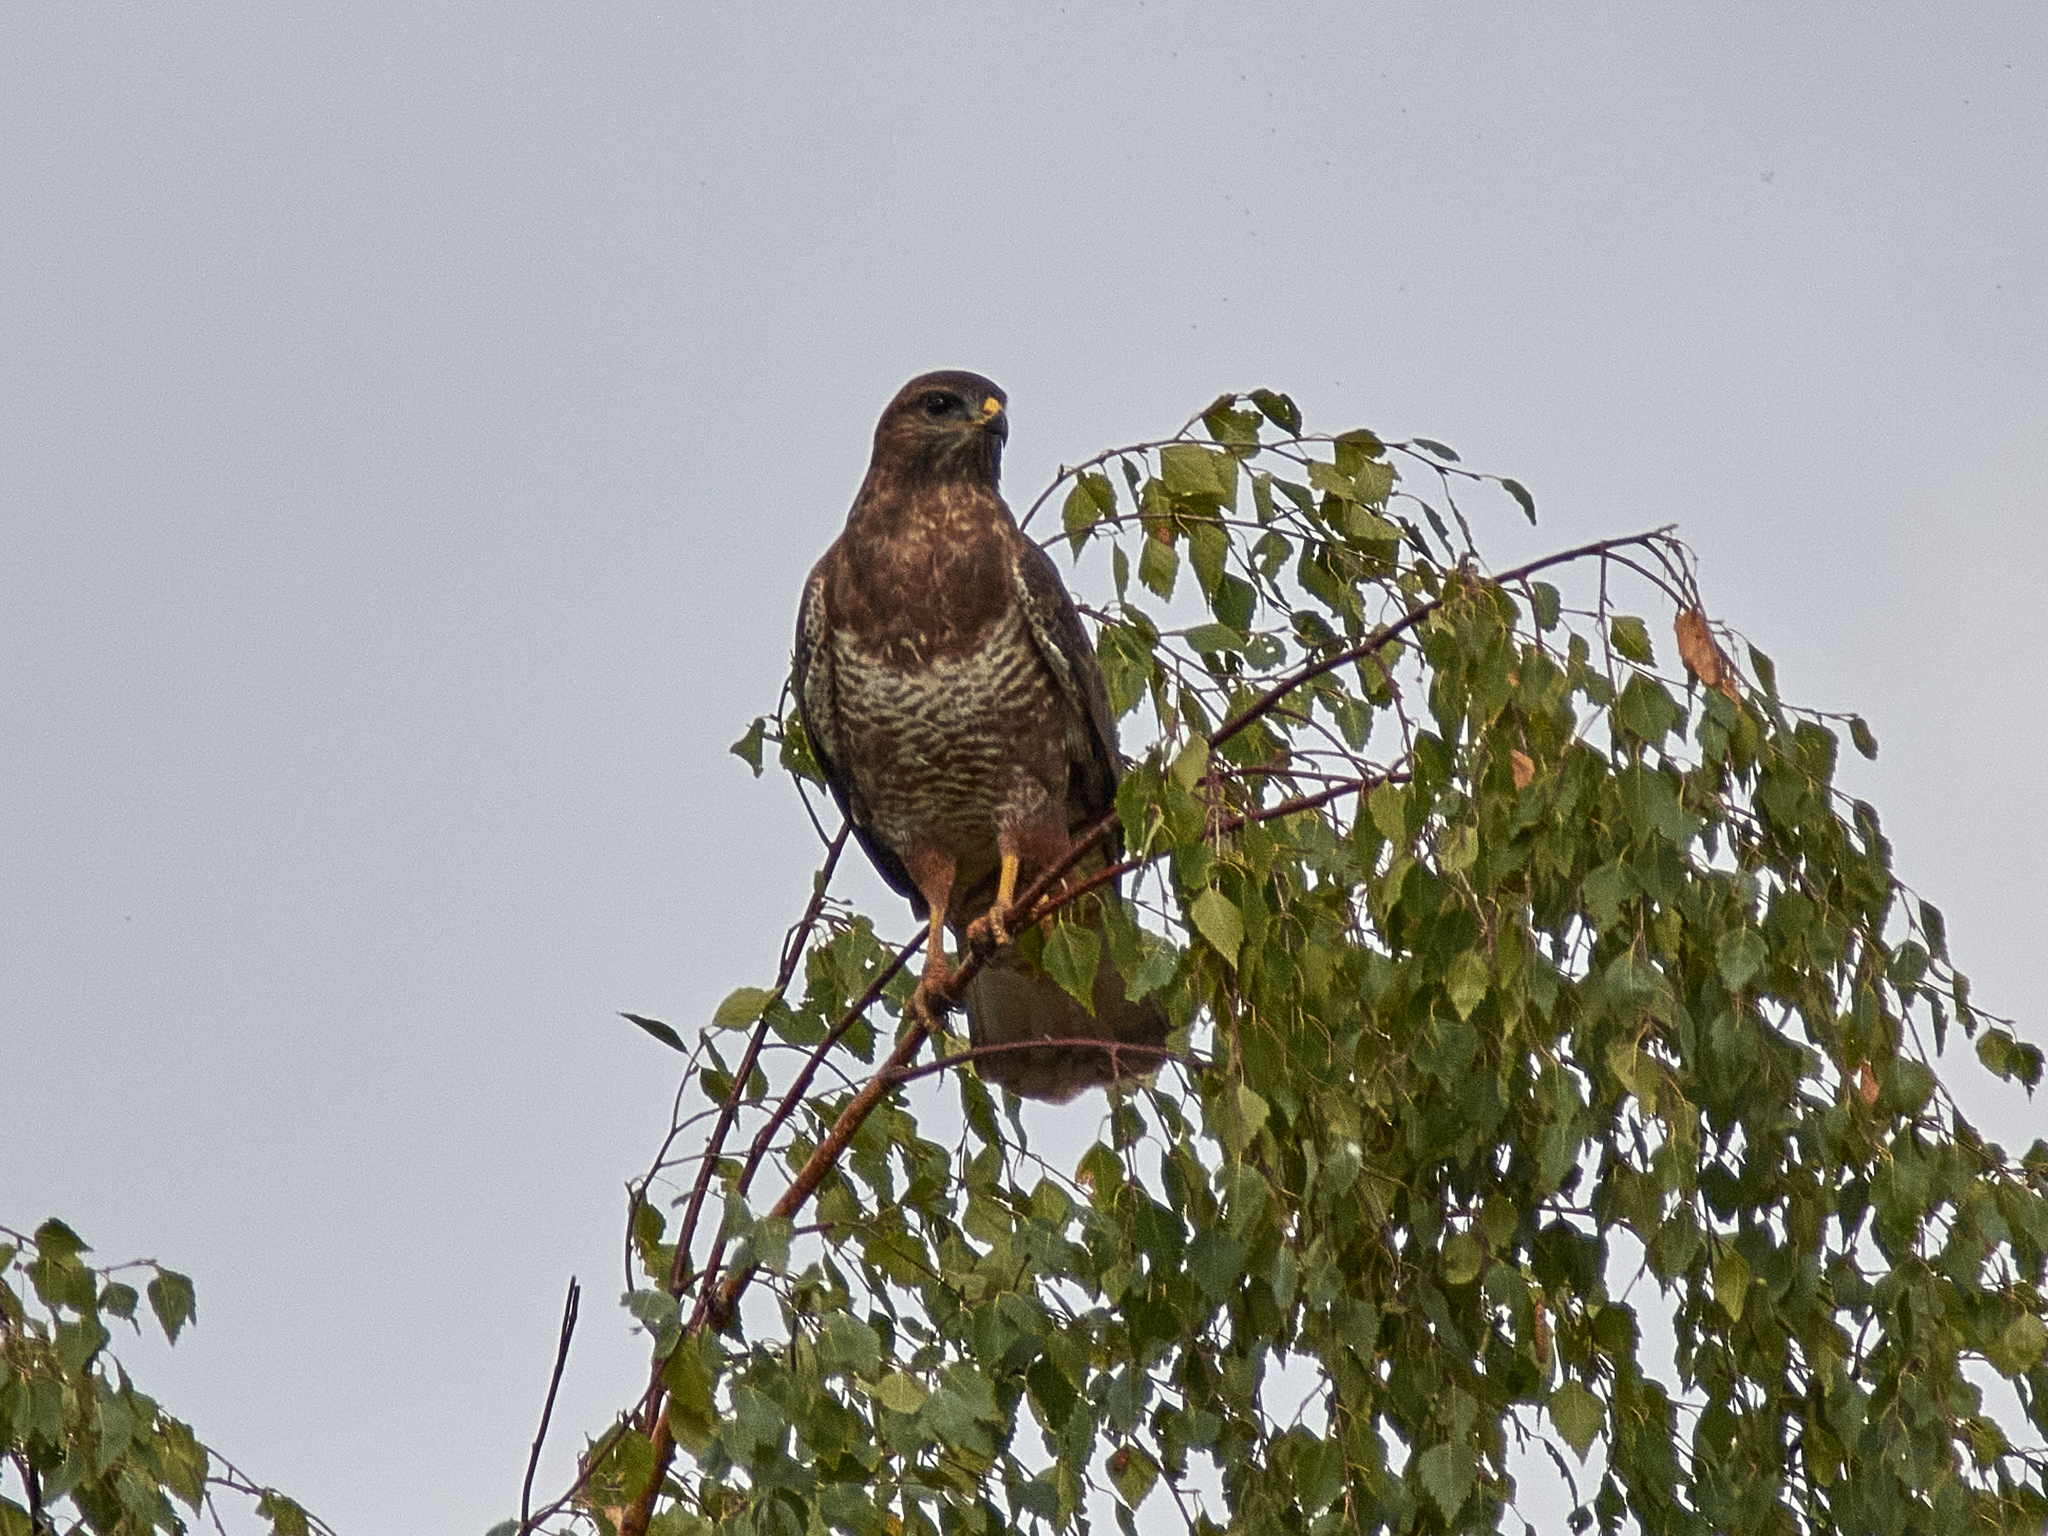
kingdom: Animalia
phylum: Chordata
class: Aves
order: Accipitriformes
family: Accipitridae
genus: Buteo
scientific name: Buteo buteo
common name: Common buzzard
